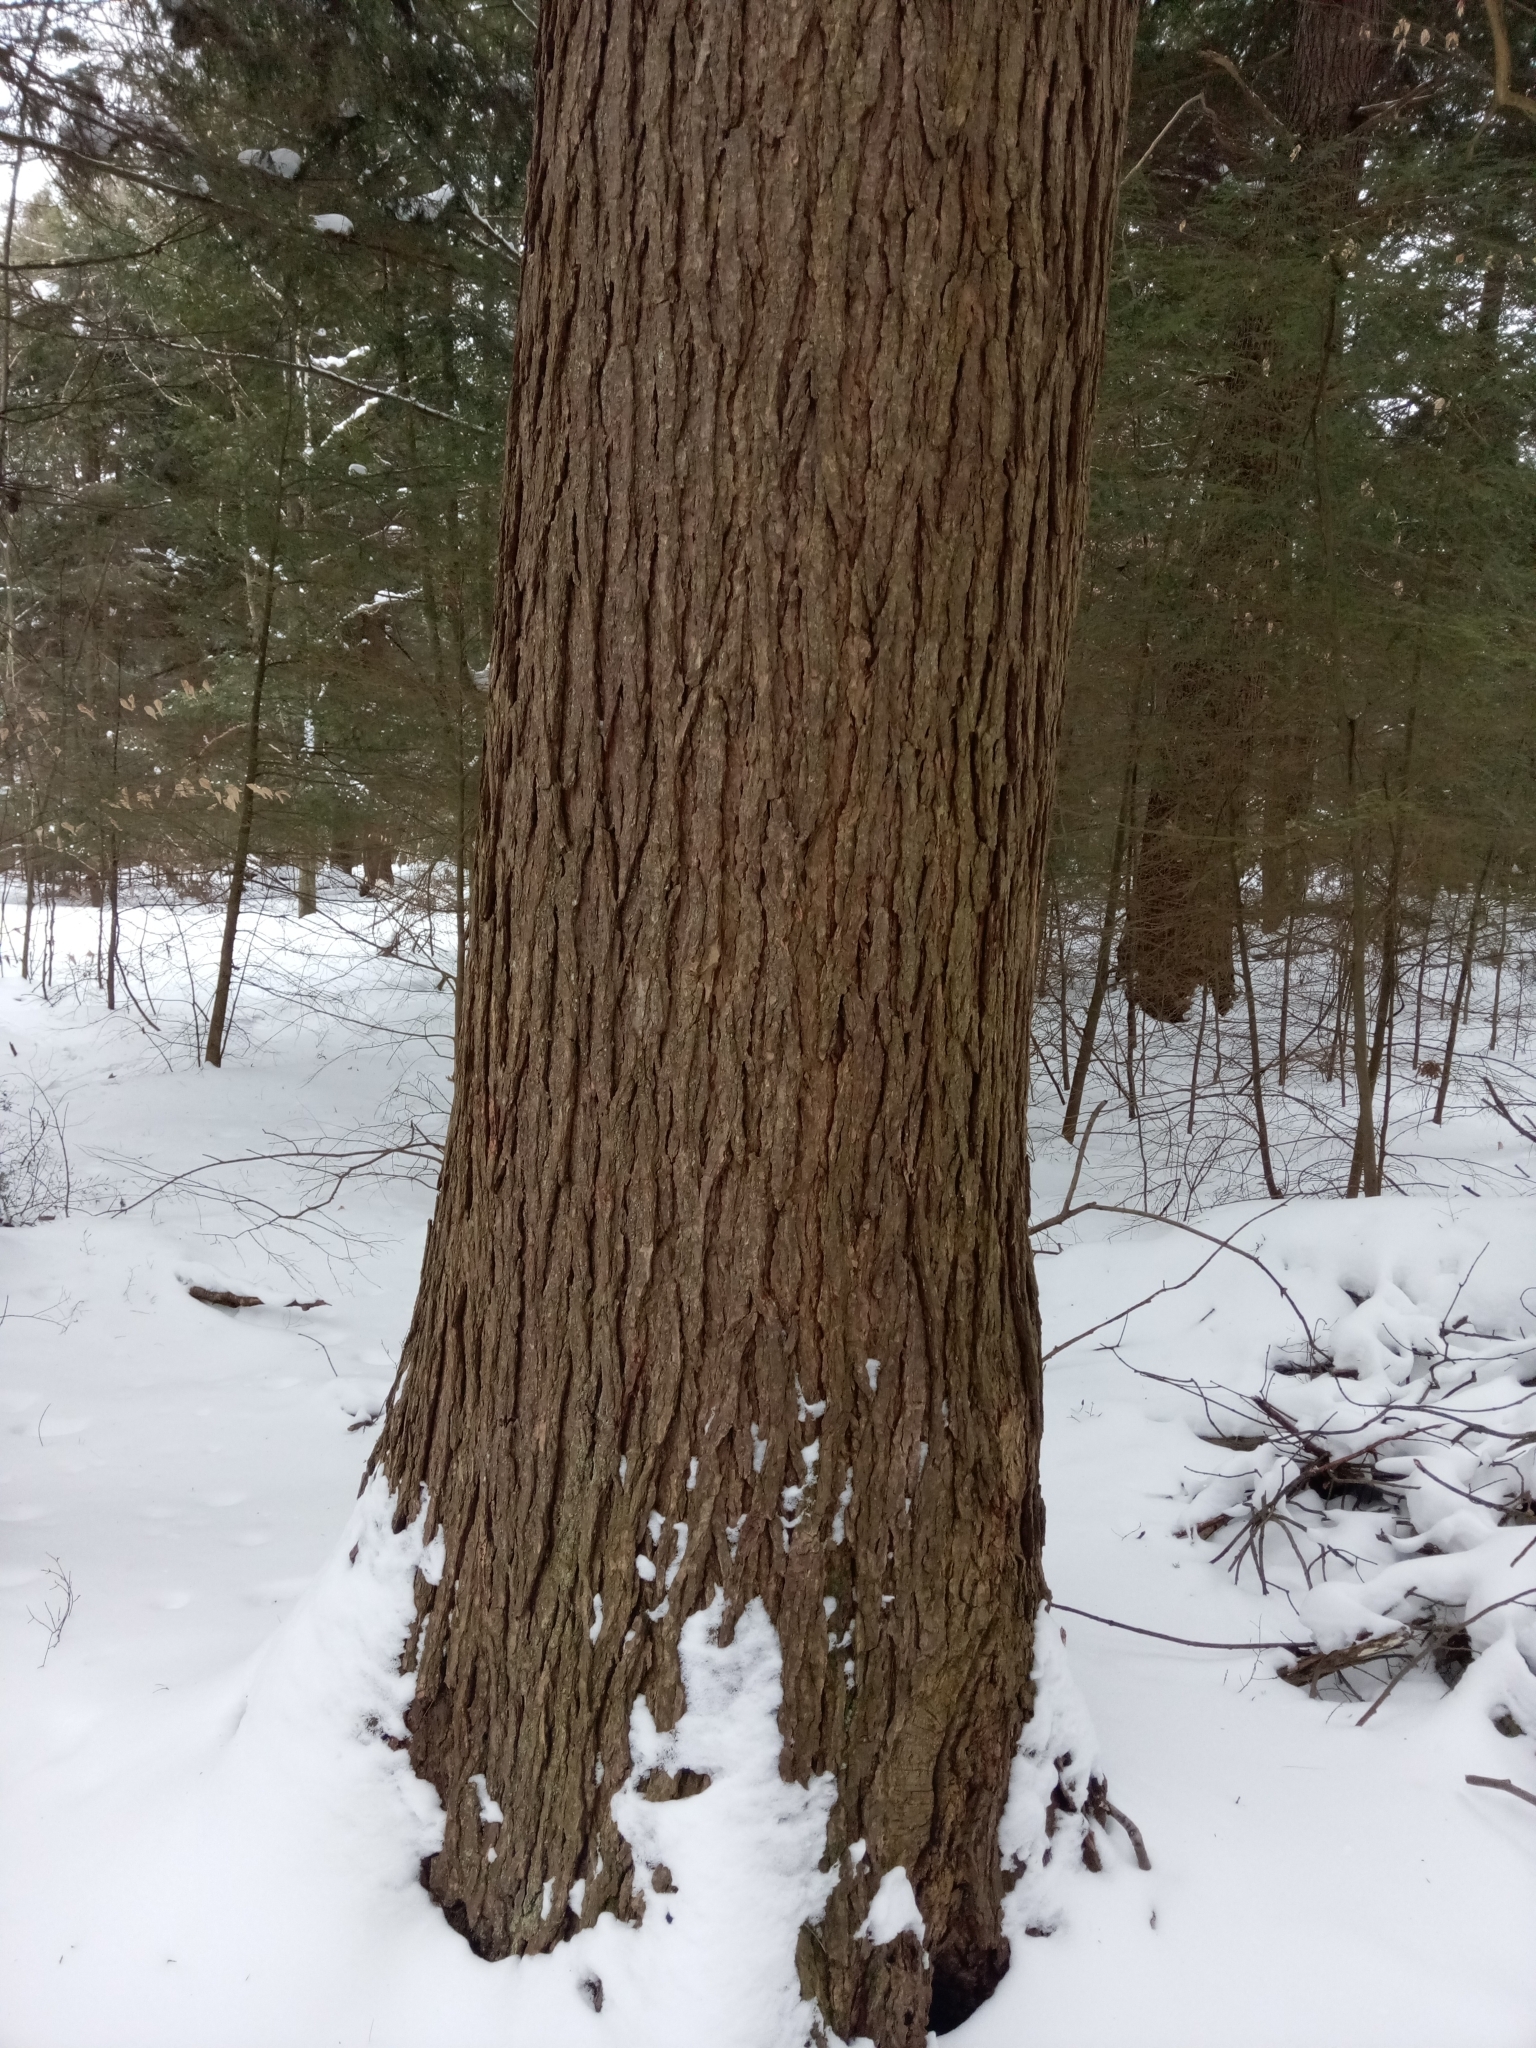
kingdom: Plantae
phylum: Tracheophyta
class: Pinopsida
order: Pinales
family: Pinaceae
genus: Tsuga
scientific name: Tsuga canadensis
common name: Eastern hemlock
